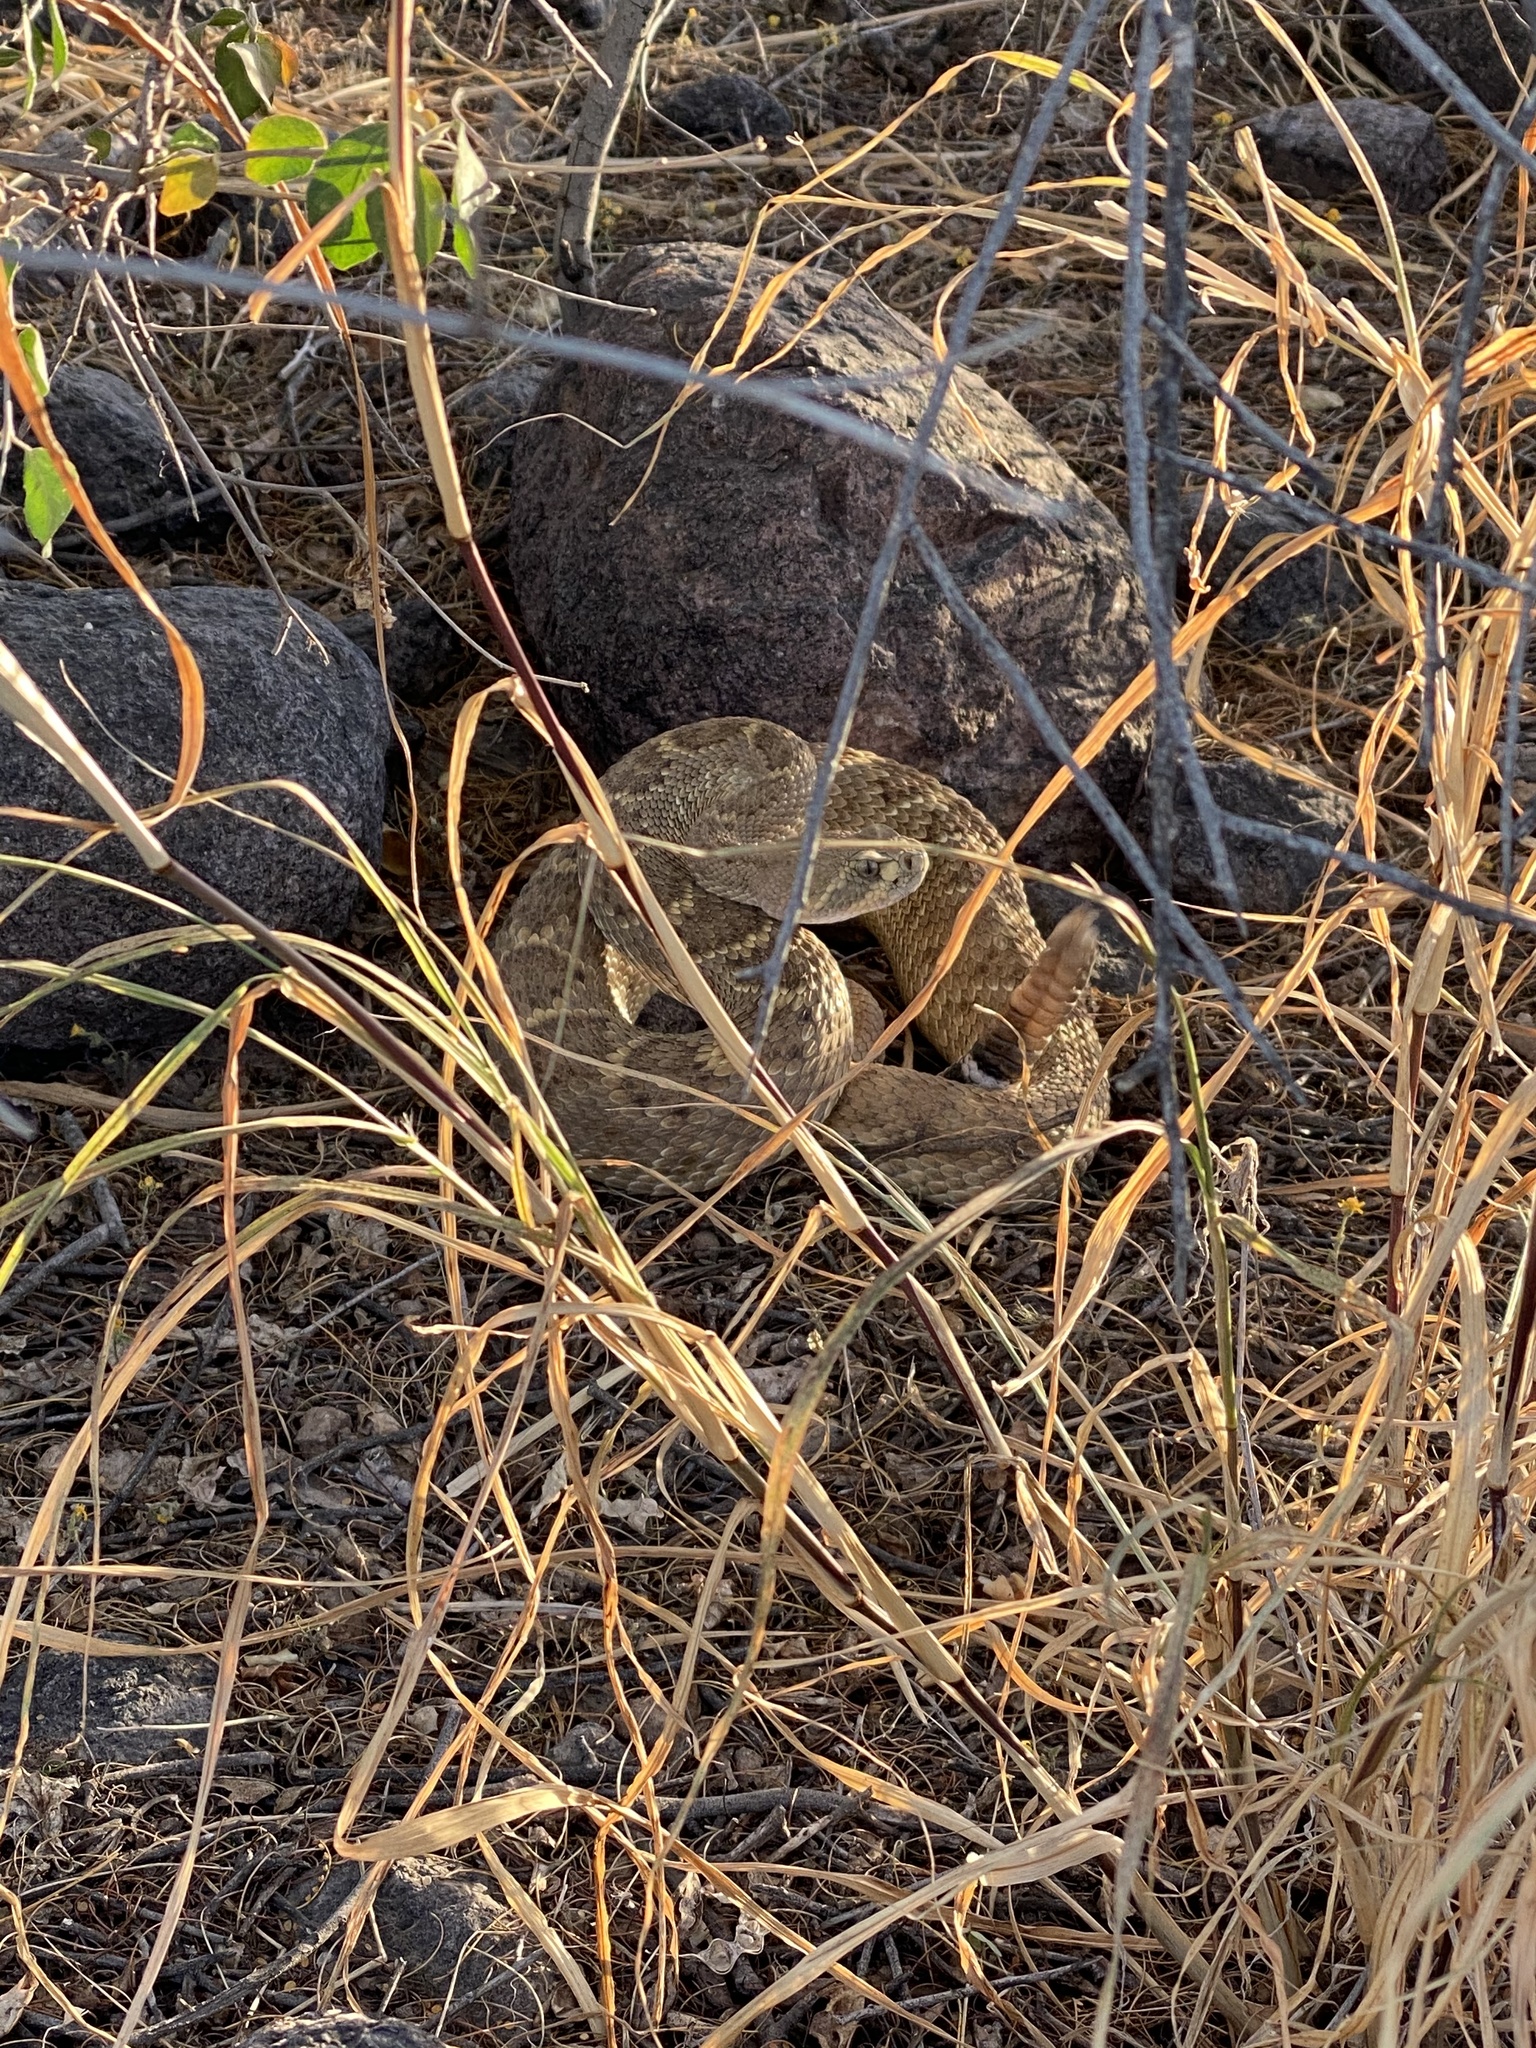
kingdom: Animalia
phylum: Chordata
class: Squamata
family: Viperidae
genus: Crotalus
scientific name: Crotalus atrox
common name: Western diamond-backed rattlesnake
